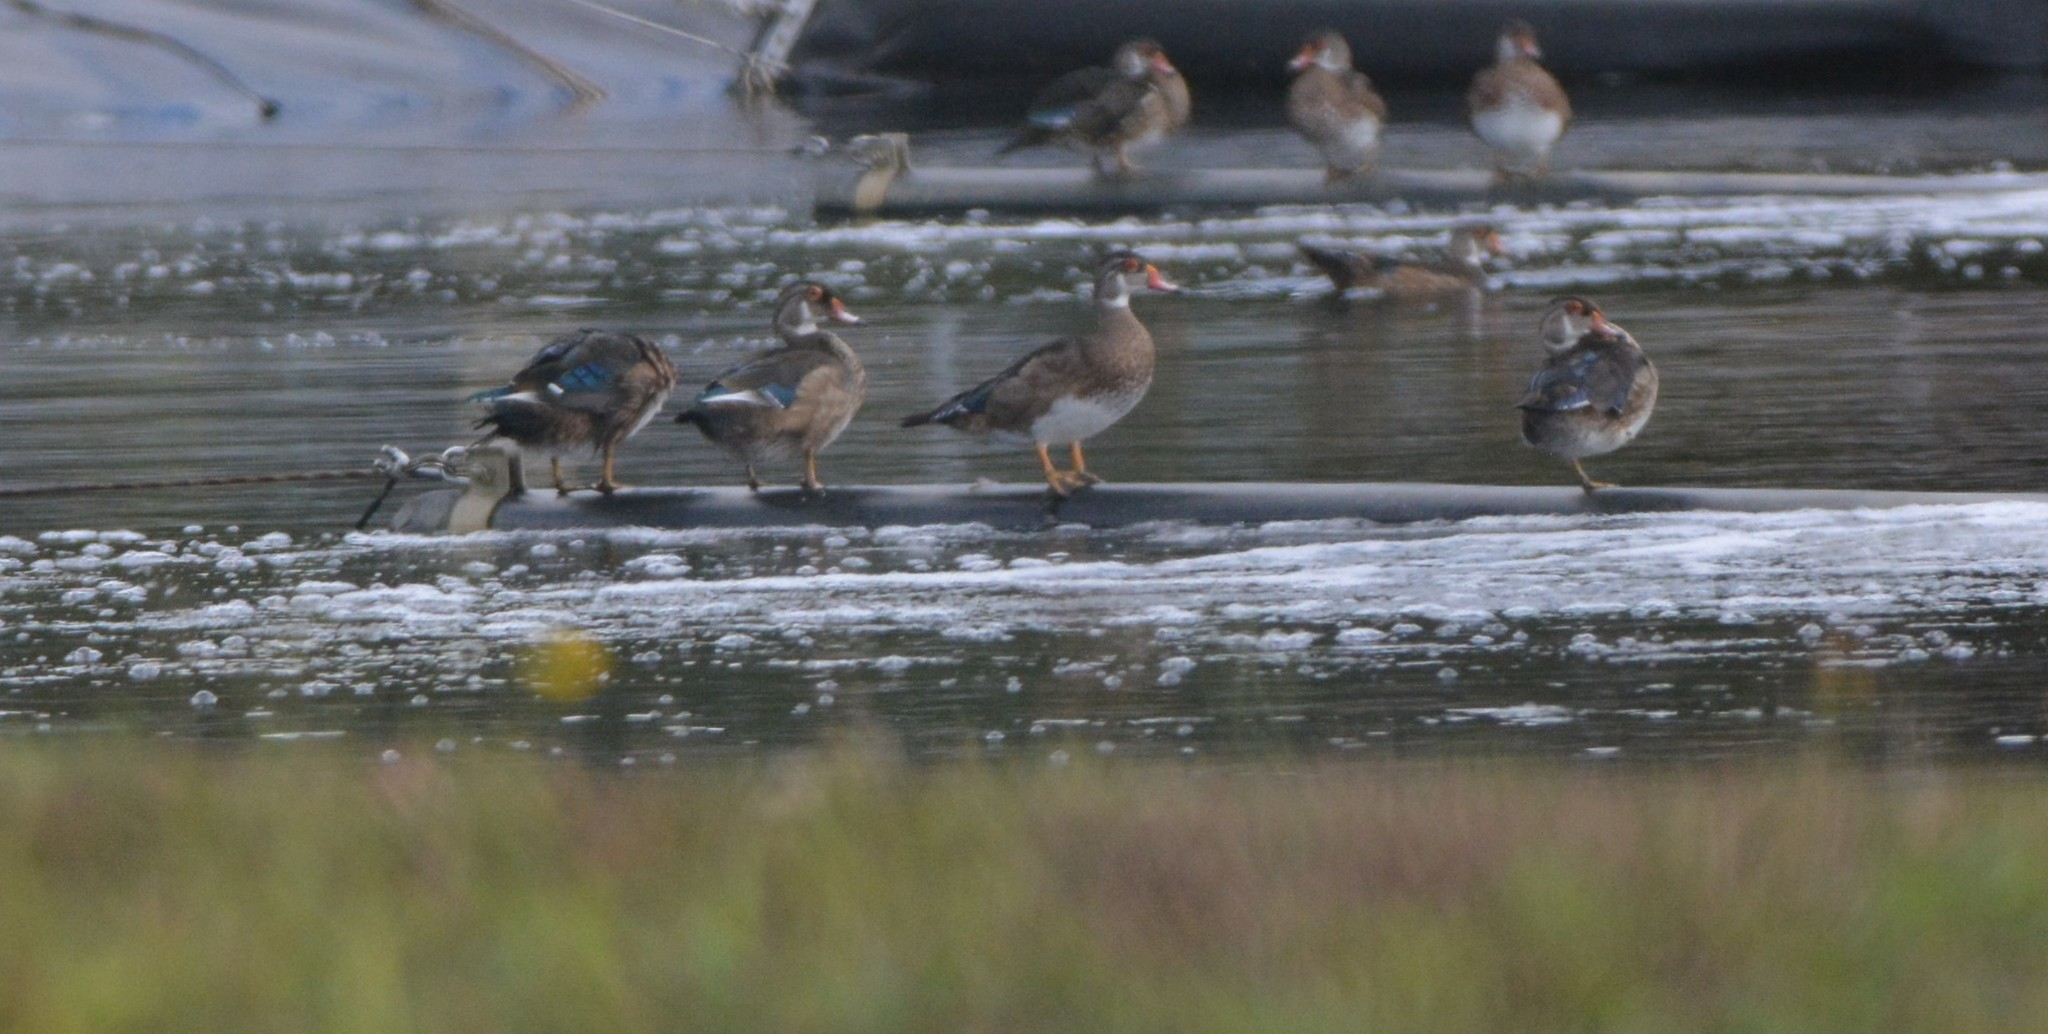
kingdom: Animalia
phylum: Chordata
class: Aves
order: Anseriformes
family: Anatidae
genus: Aix
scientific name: Aix sponsa
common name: Wood duck
